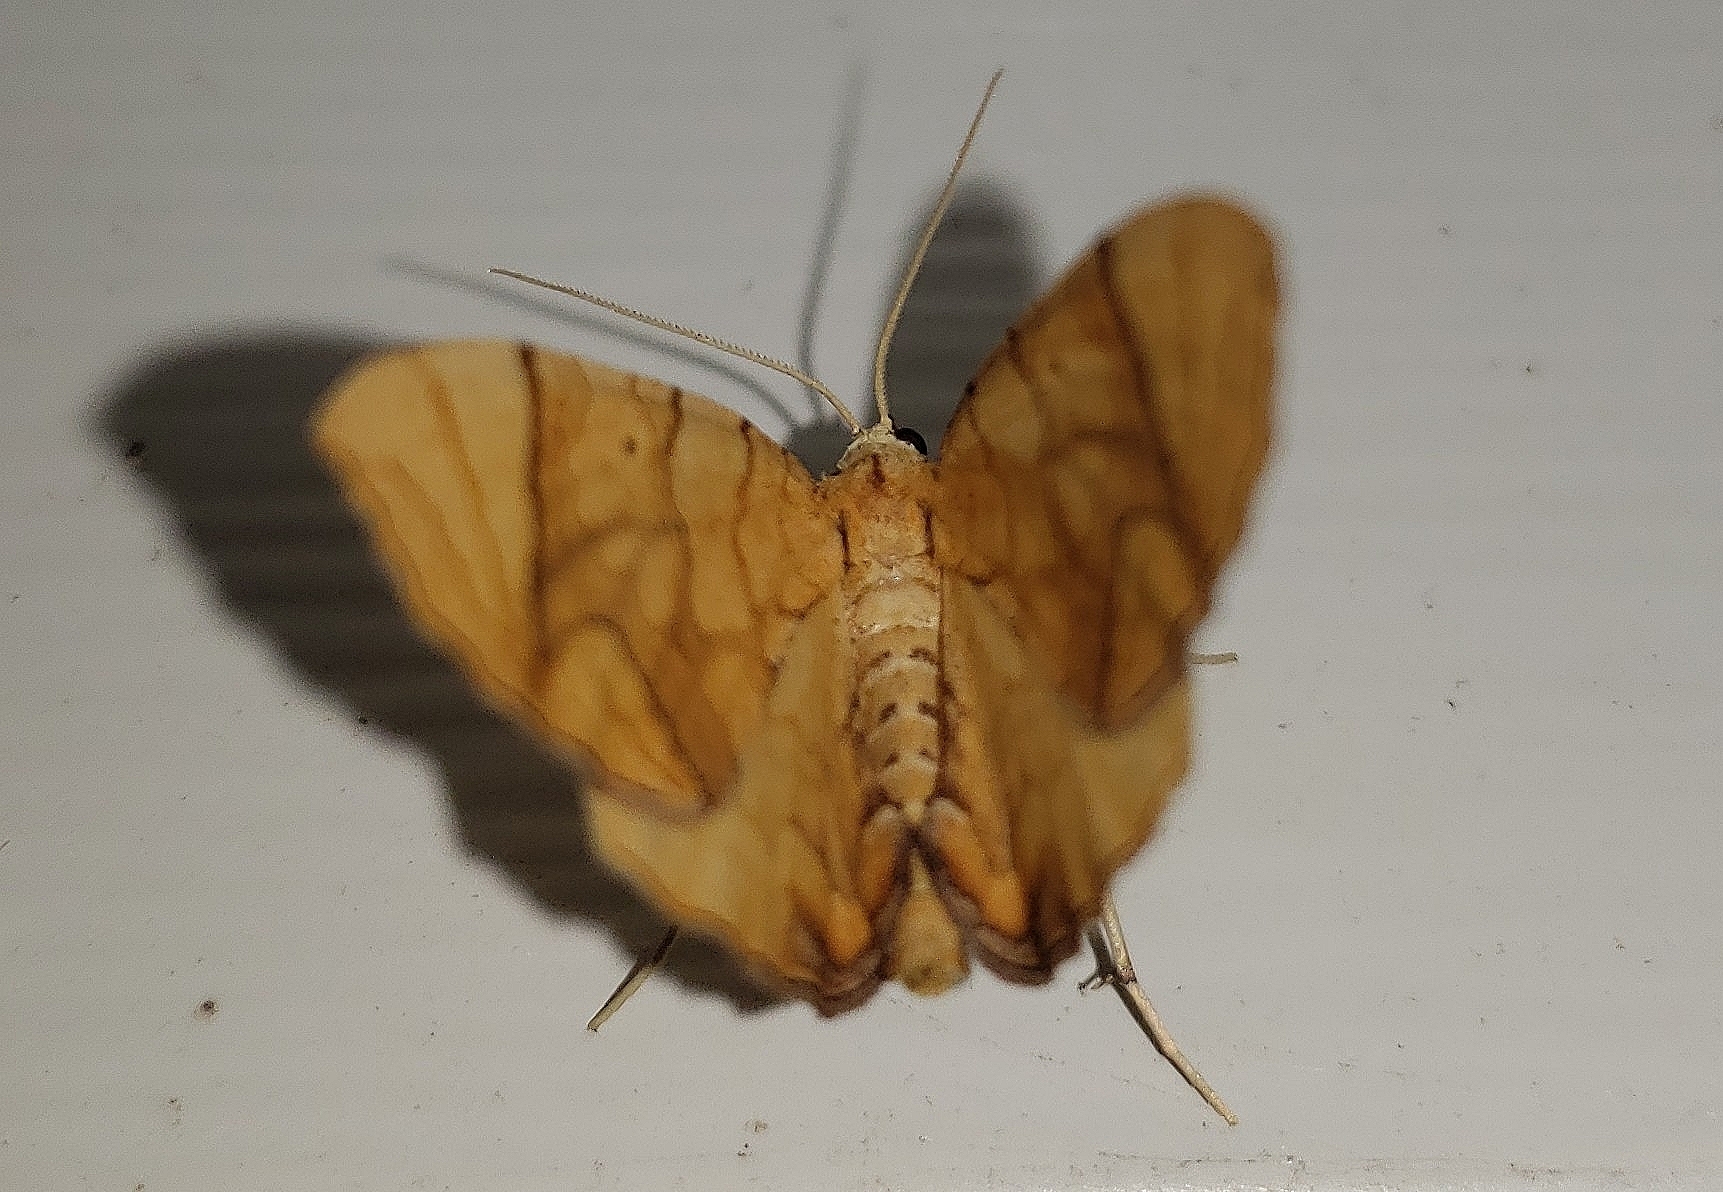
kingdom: Animalia
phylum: Arthropoda
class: Insecta
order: Lepidoptera
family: Geometridae
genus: Eulithis
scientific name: Eulithis
